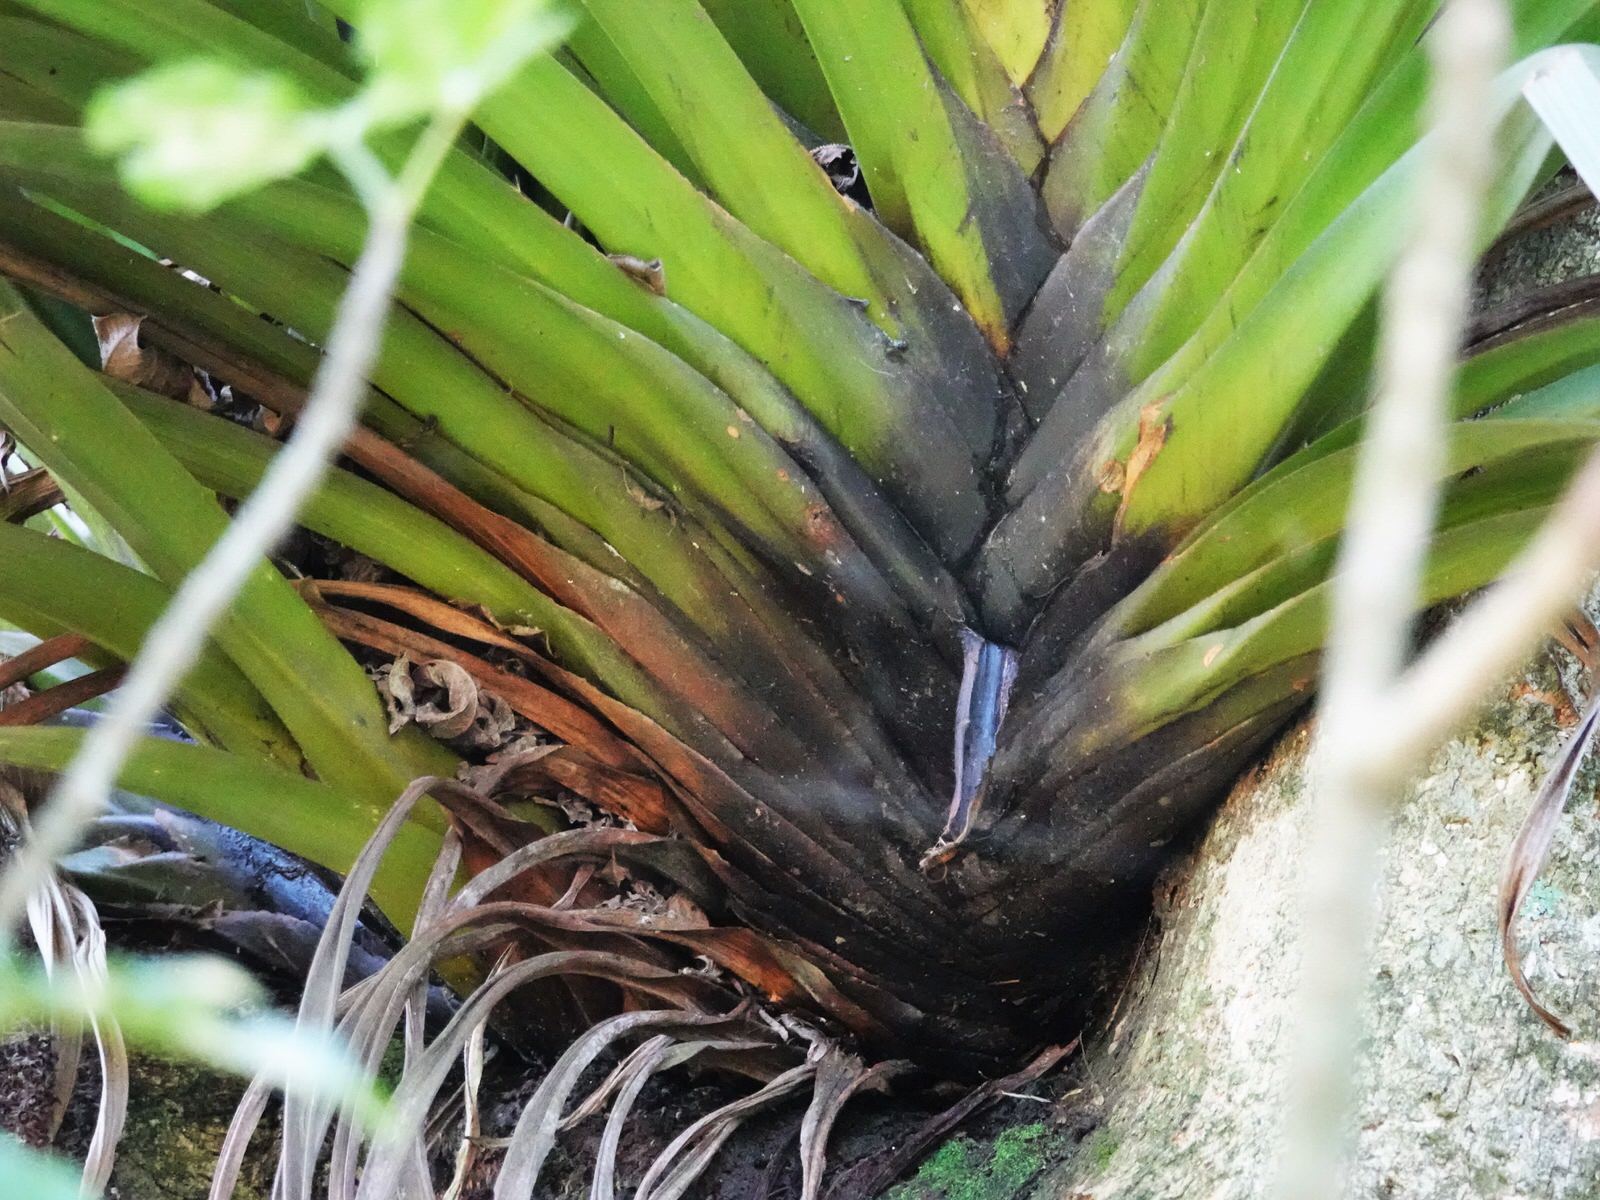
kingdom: Plantae
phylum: Tracheophyta
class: Liliopsida
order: Asparagales
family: Asteliaceae
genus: Astelia
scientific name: Astelia hastata
